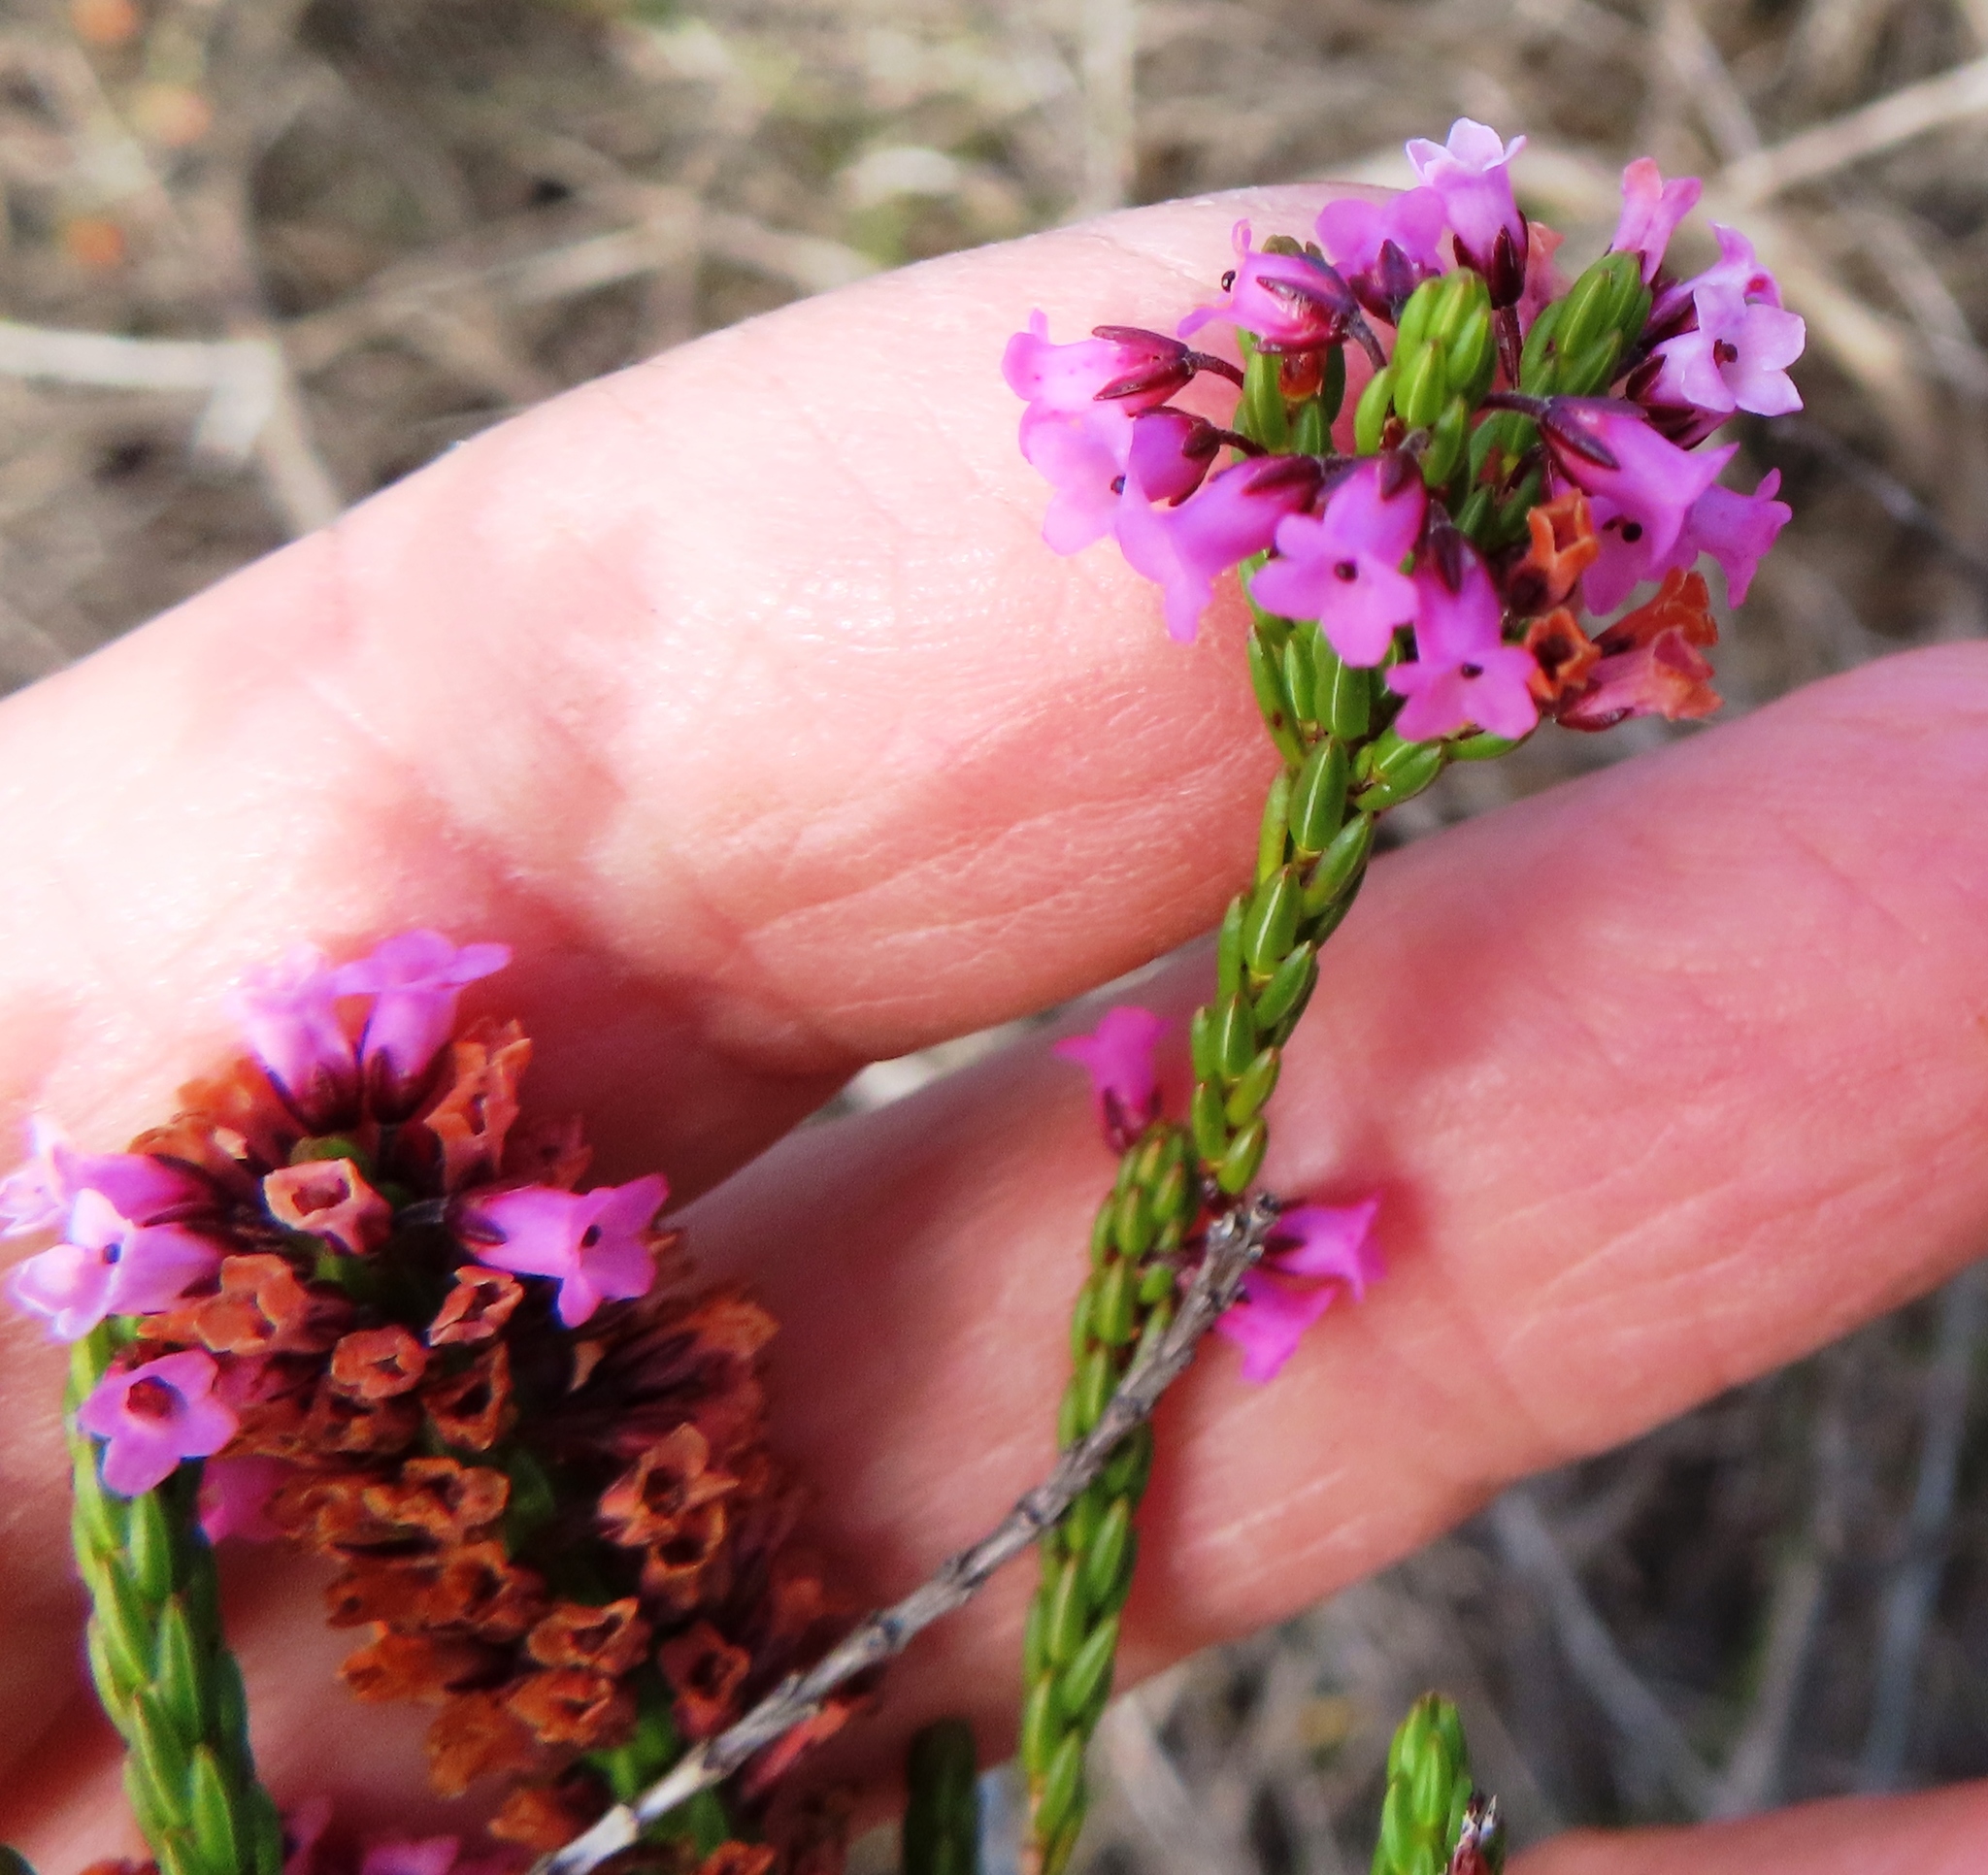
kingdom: Plantae
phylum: Tracheophyta
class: Magnoliopsida
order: Ericales
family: Ericaceae
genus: Erica
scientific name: Erica longiaristata
